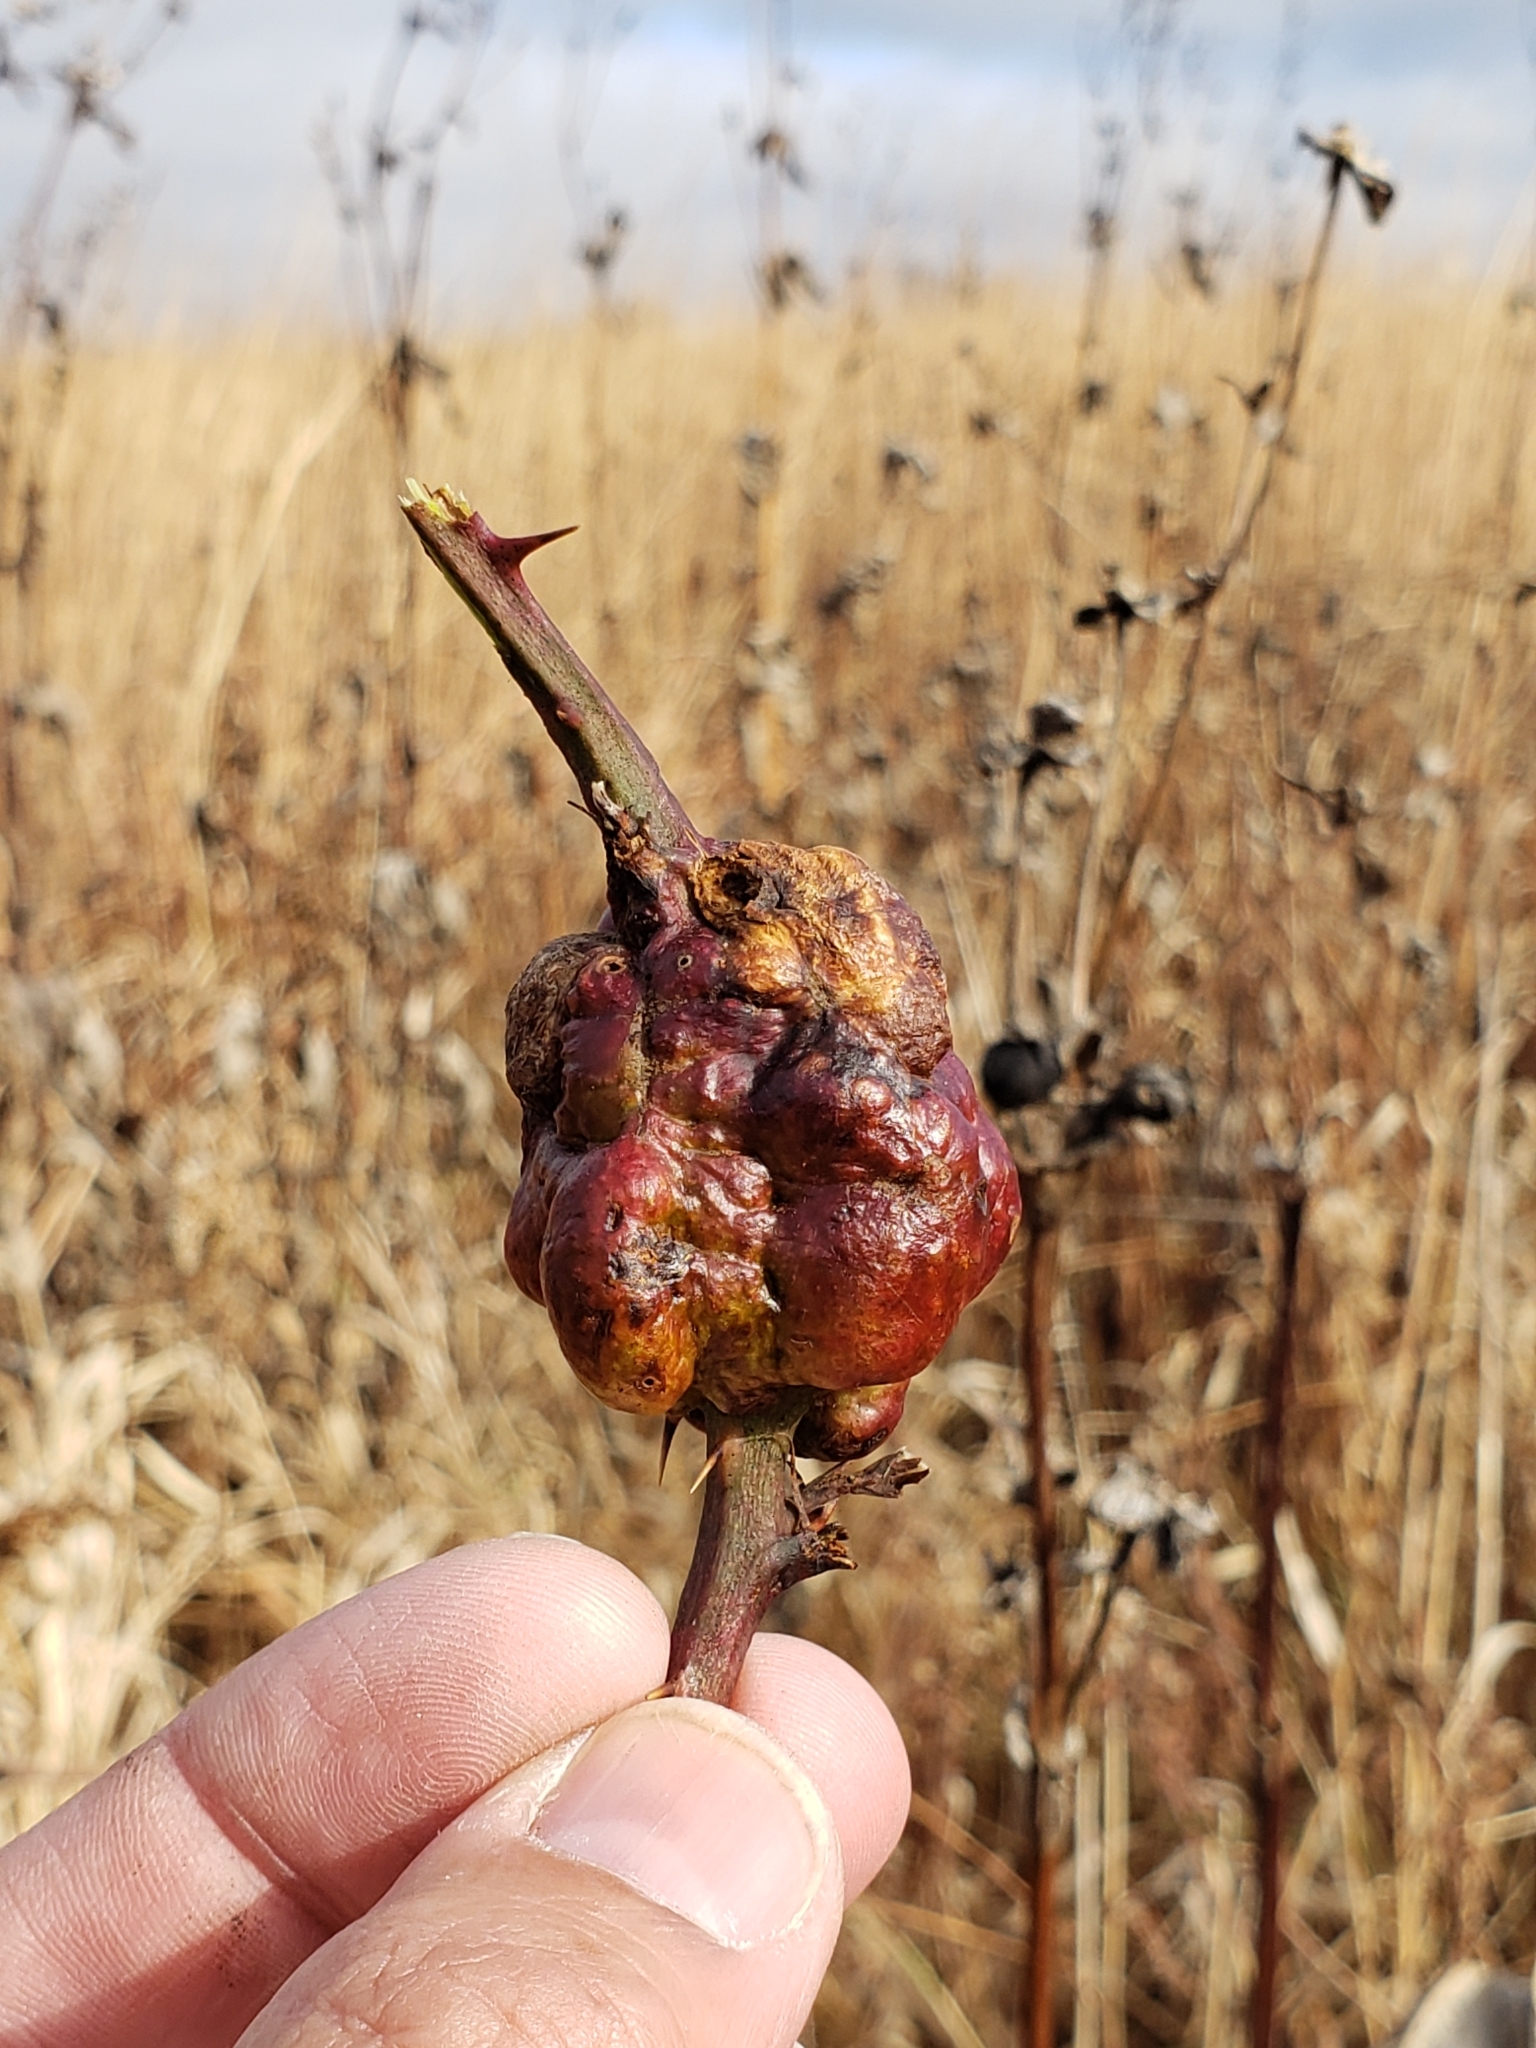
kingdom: Animalia
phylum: Arthropoda
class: Insecta
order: Hymenoptera
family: Cynipidae
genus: Diastrophus
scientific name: Diastrophus
